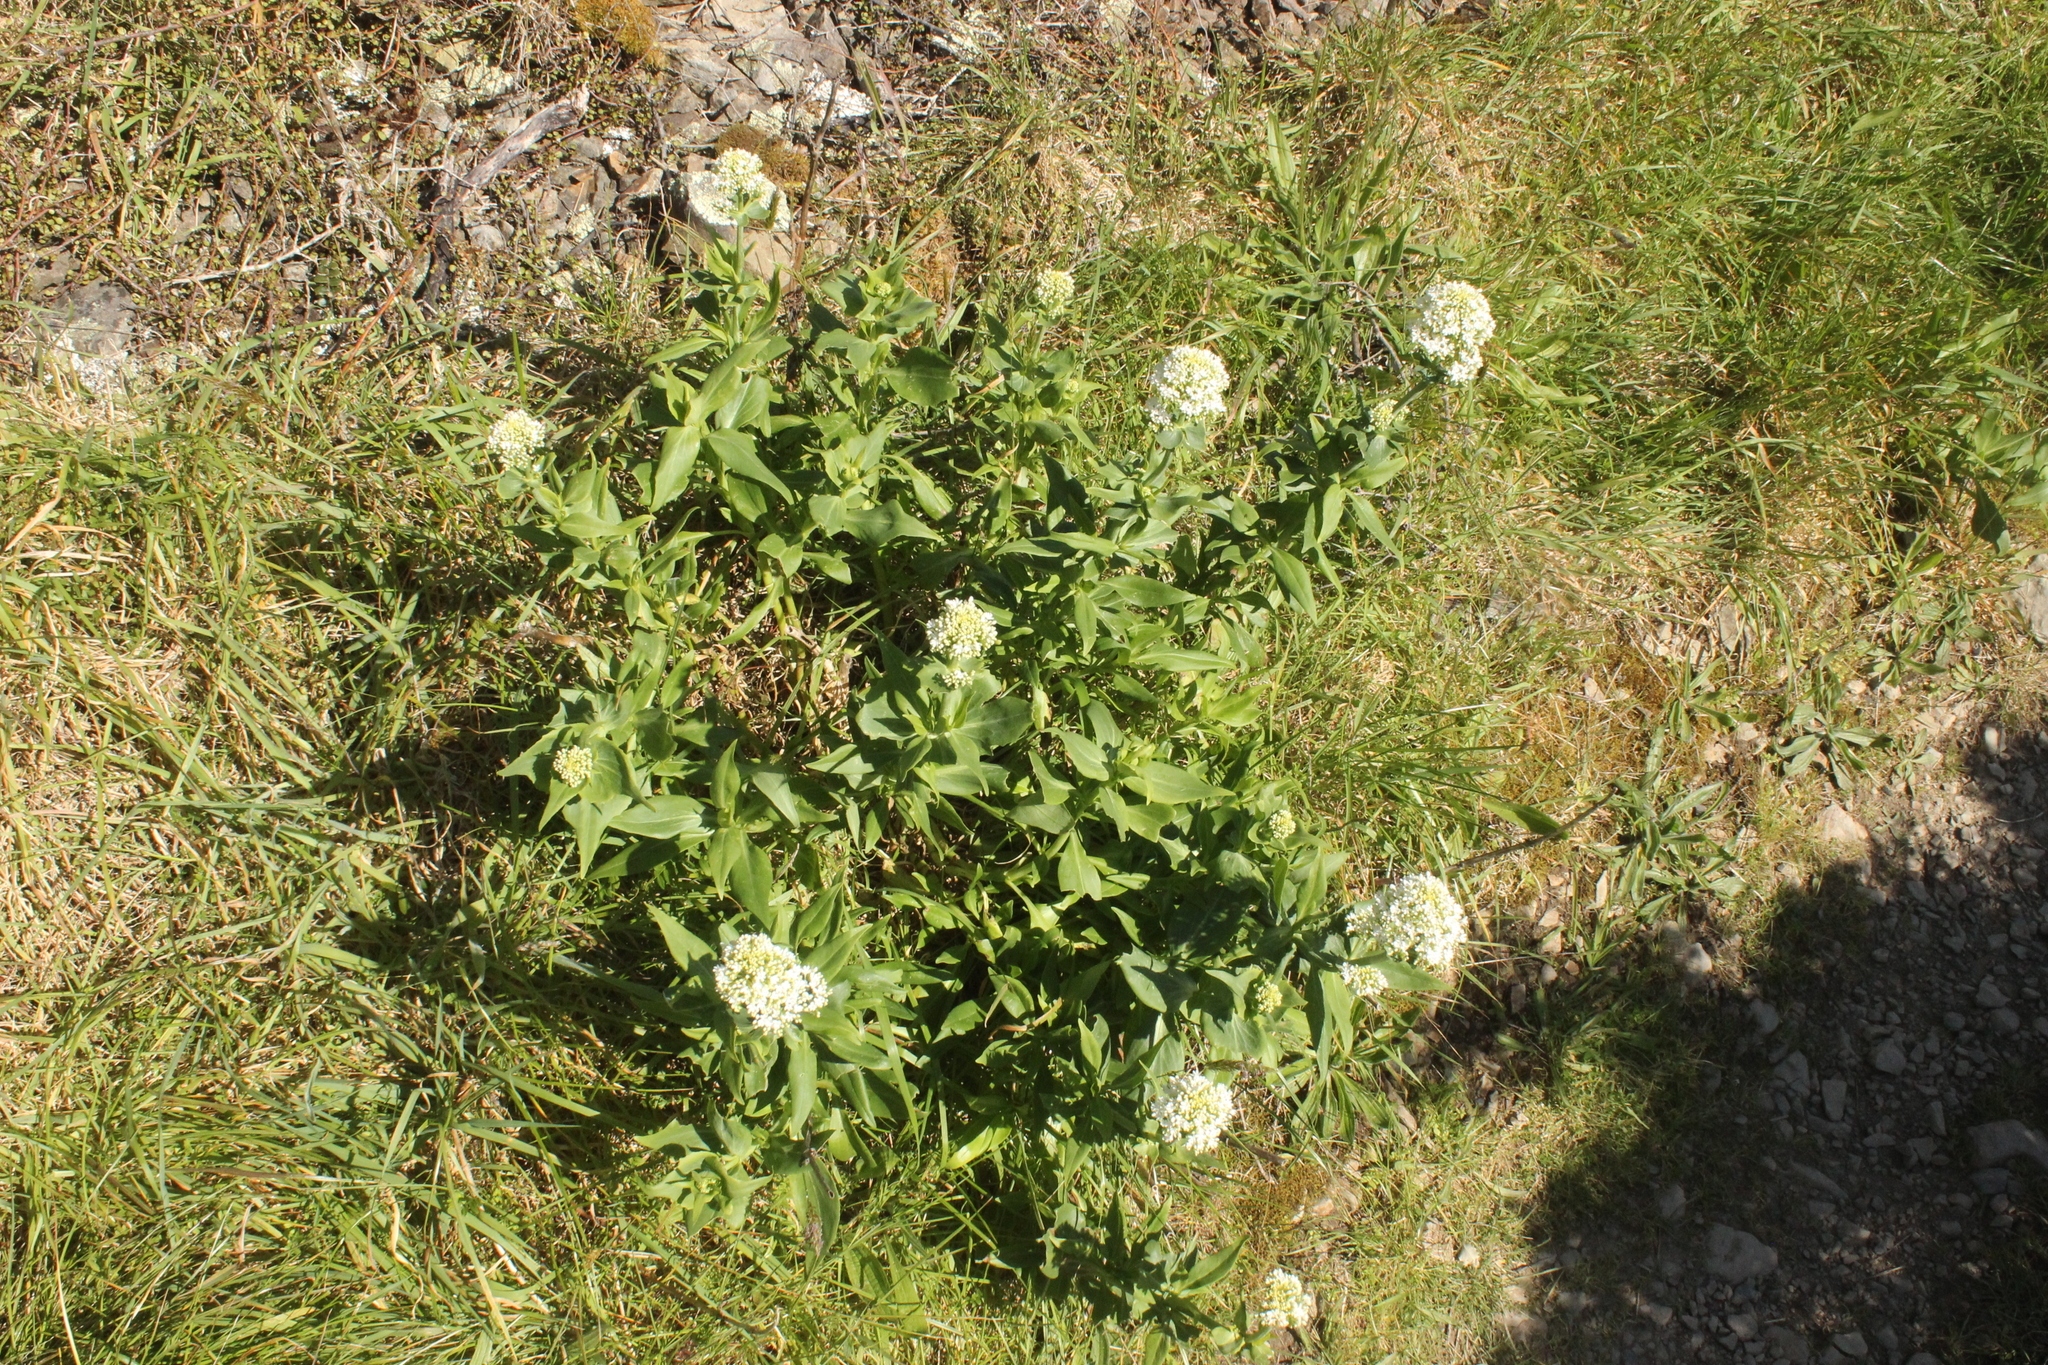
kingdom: Plantae
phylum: Tracheophyta
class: Magnoliopsida
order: Dipsacales
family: Caprifoliaceae
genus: Centranthus
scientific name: Centranthus ruber
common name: Red valerian
